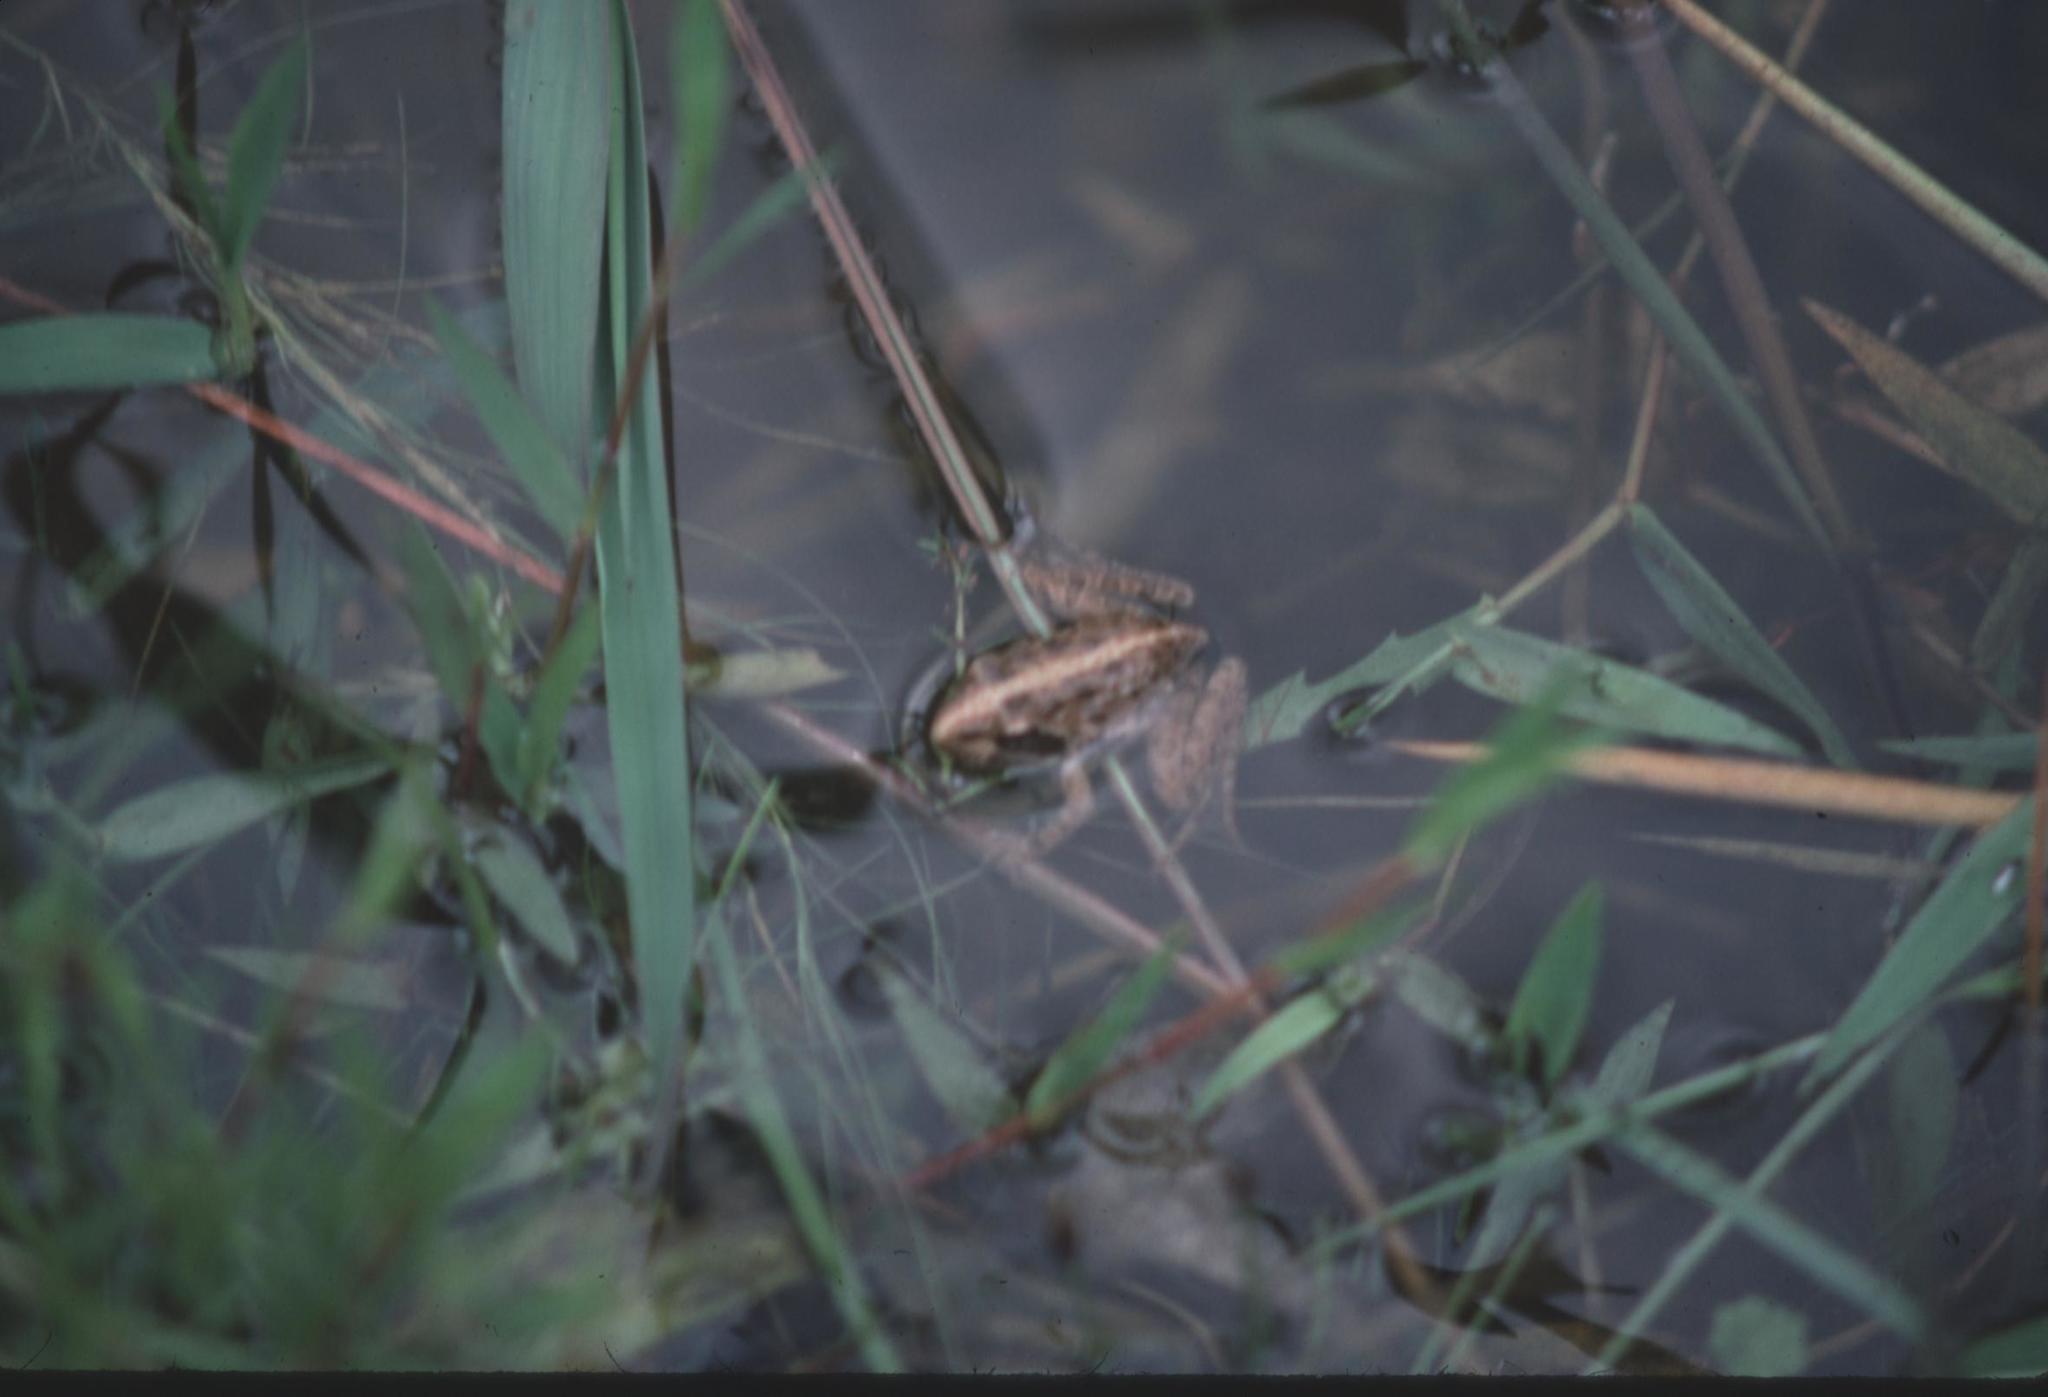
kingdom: Animalia
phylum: Chordata
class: Amphibia
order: Anura
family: Pyxicephalidae
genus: Amietia
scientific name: Amietia delalandii
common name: Delalande's river frog
